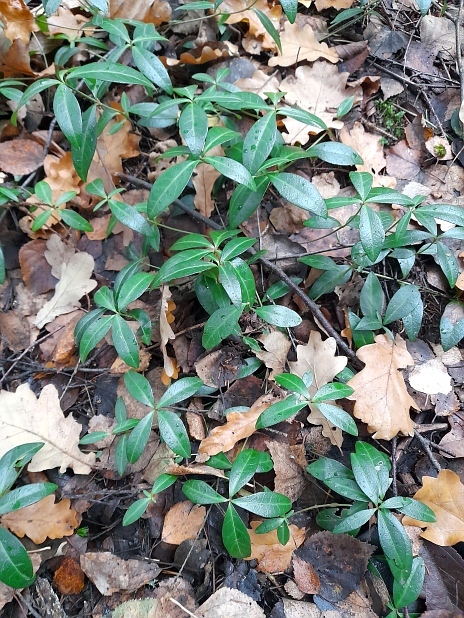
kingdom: Plantae
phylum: Tracheophyta
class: Magnoliopsida
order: Gentianales
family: Apocynaceae
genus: Vinca
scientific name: Vinca minor
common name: Lesser periwinkle
